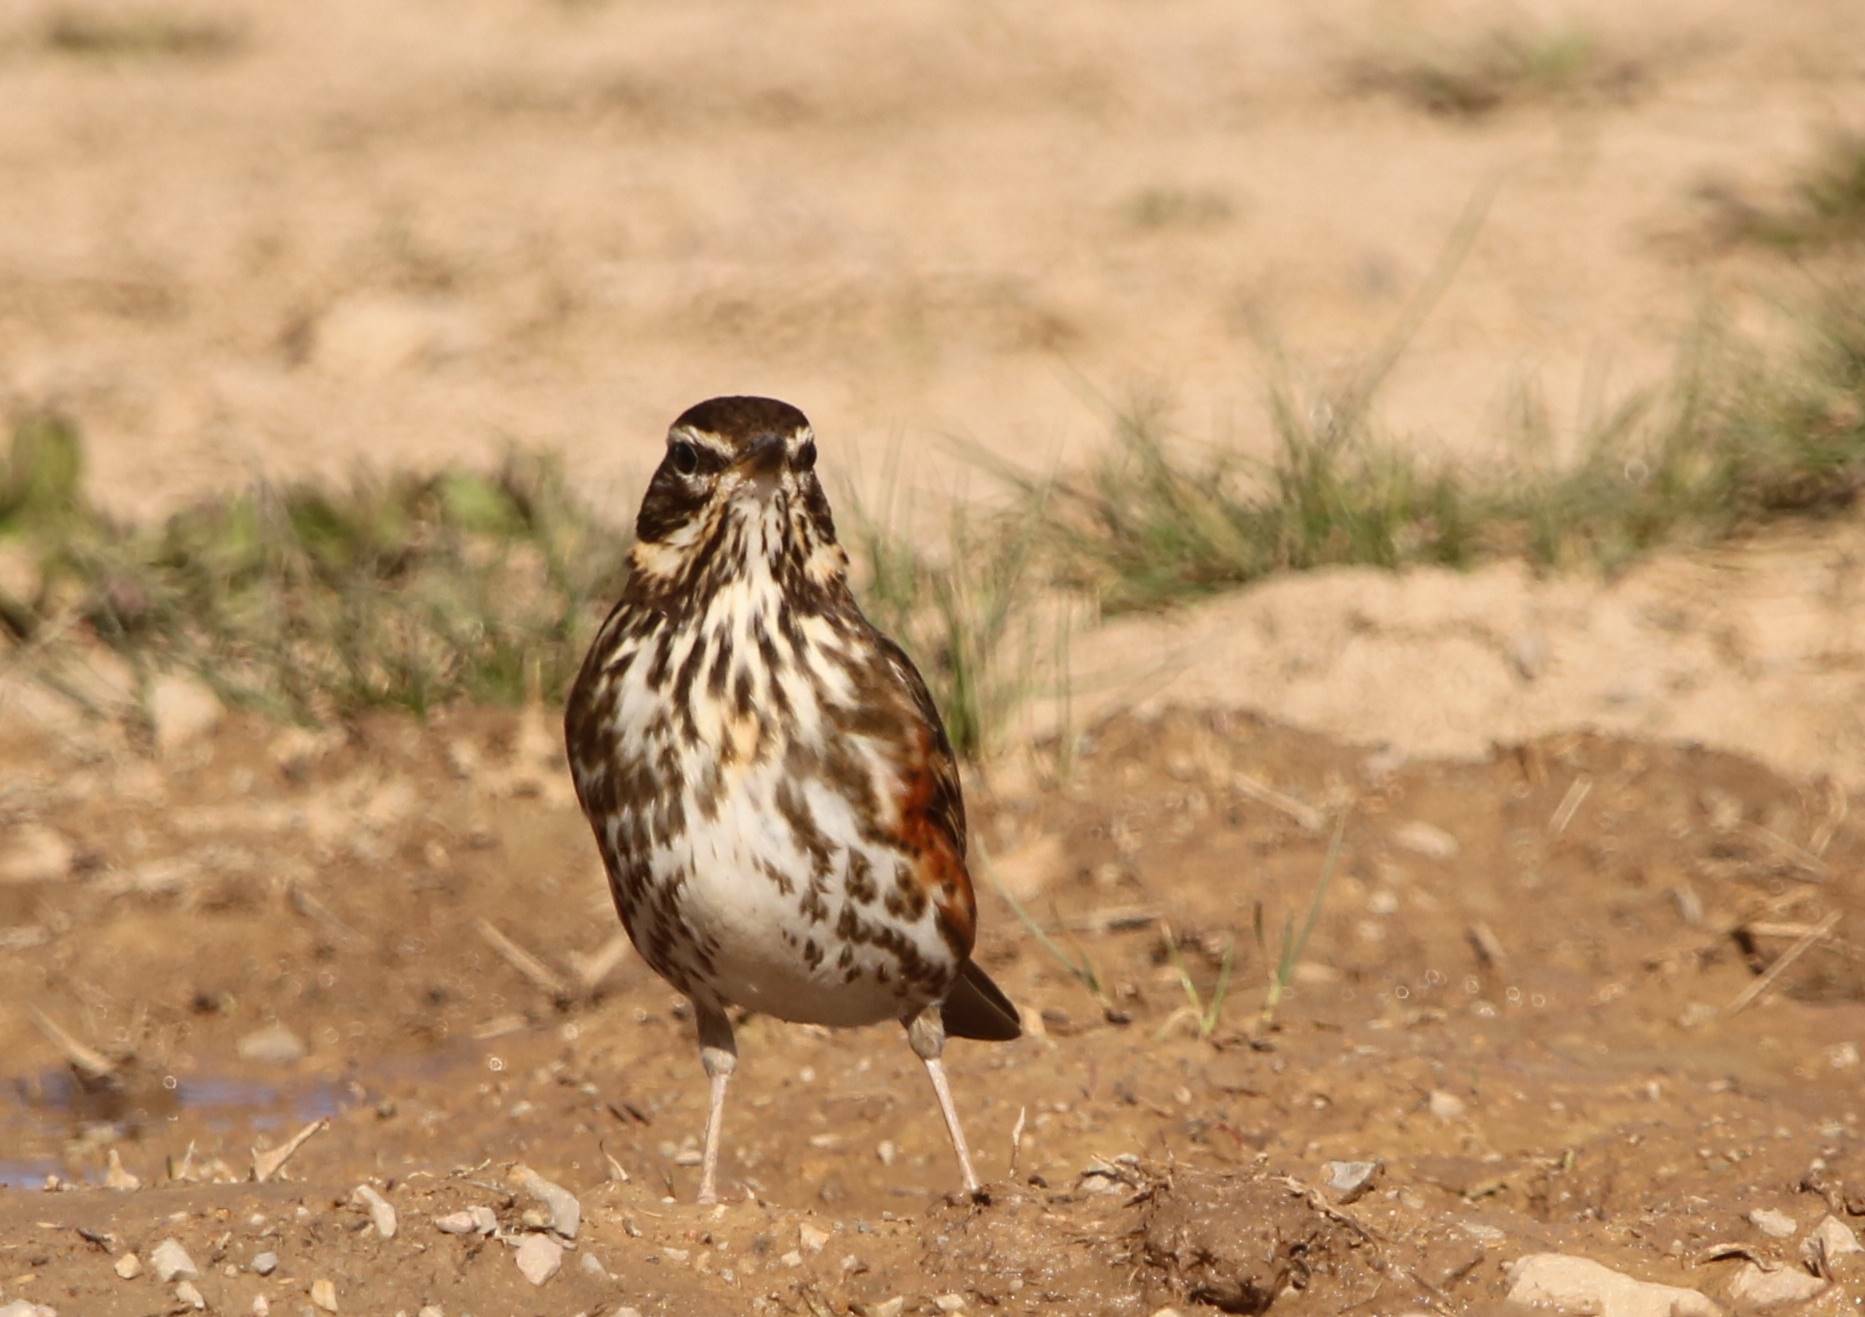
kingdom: Animalia
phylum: Chordata
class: Aves
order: Passeriformes
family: Turdidae
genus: Turdus
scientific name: Turdus iliacus
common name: Redwing
